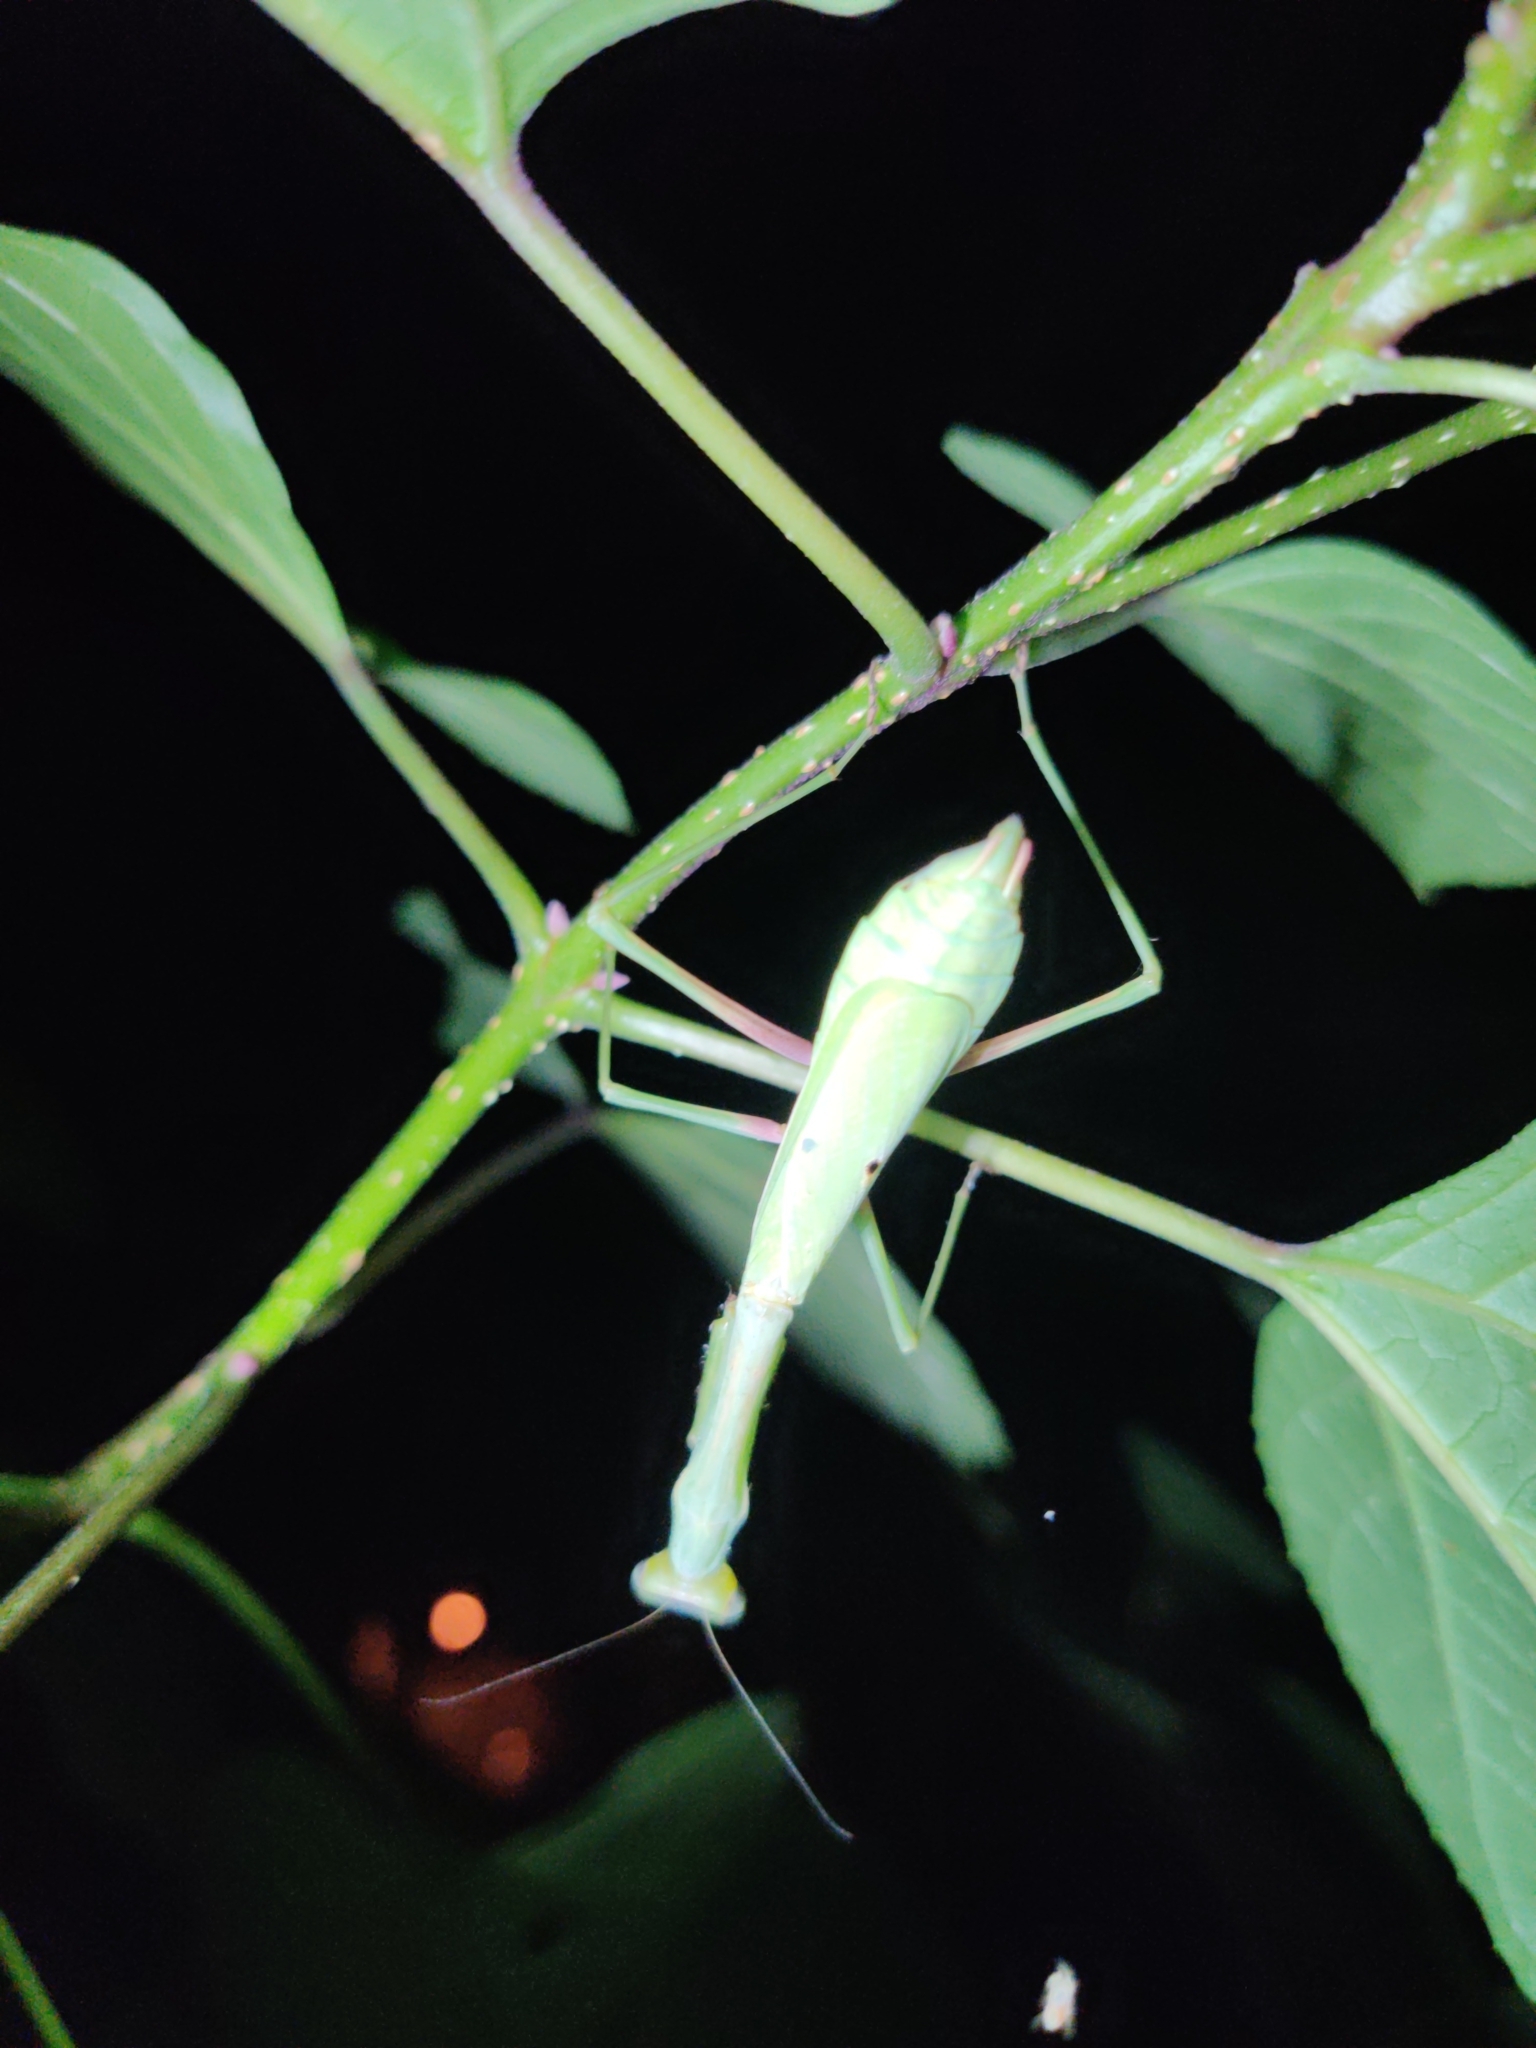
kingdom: Animalia
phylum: Arthropoda
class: Insecta
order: Mantodea
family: Mantidae
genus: Stagmomantis
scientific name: Stagmomantis carolina
